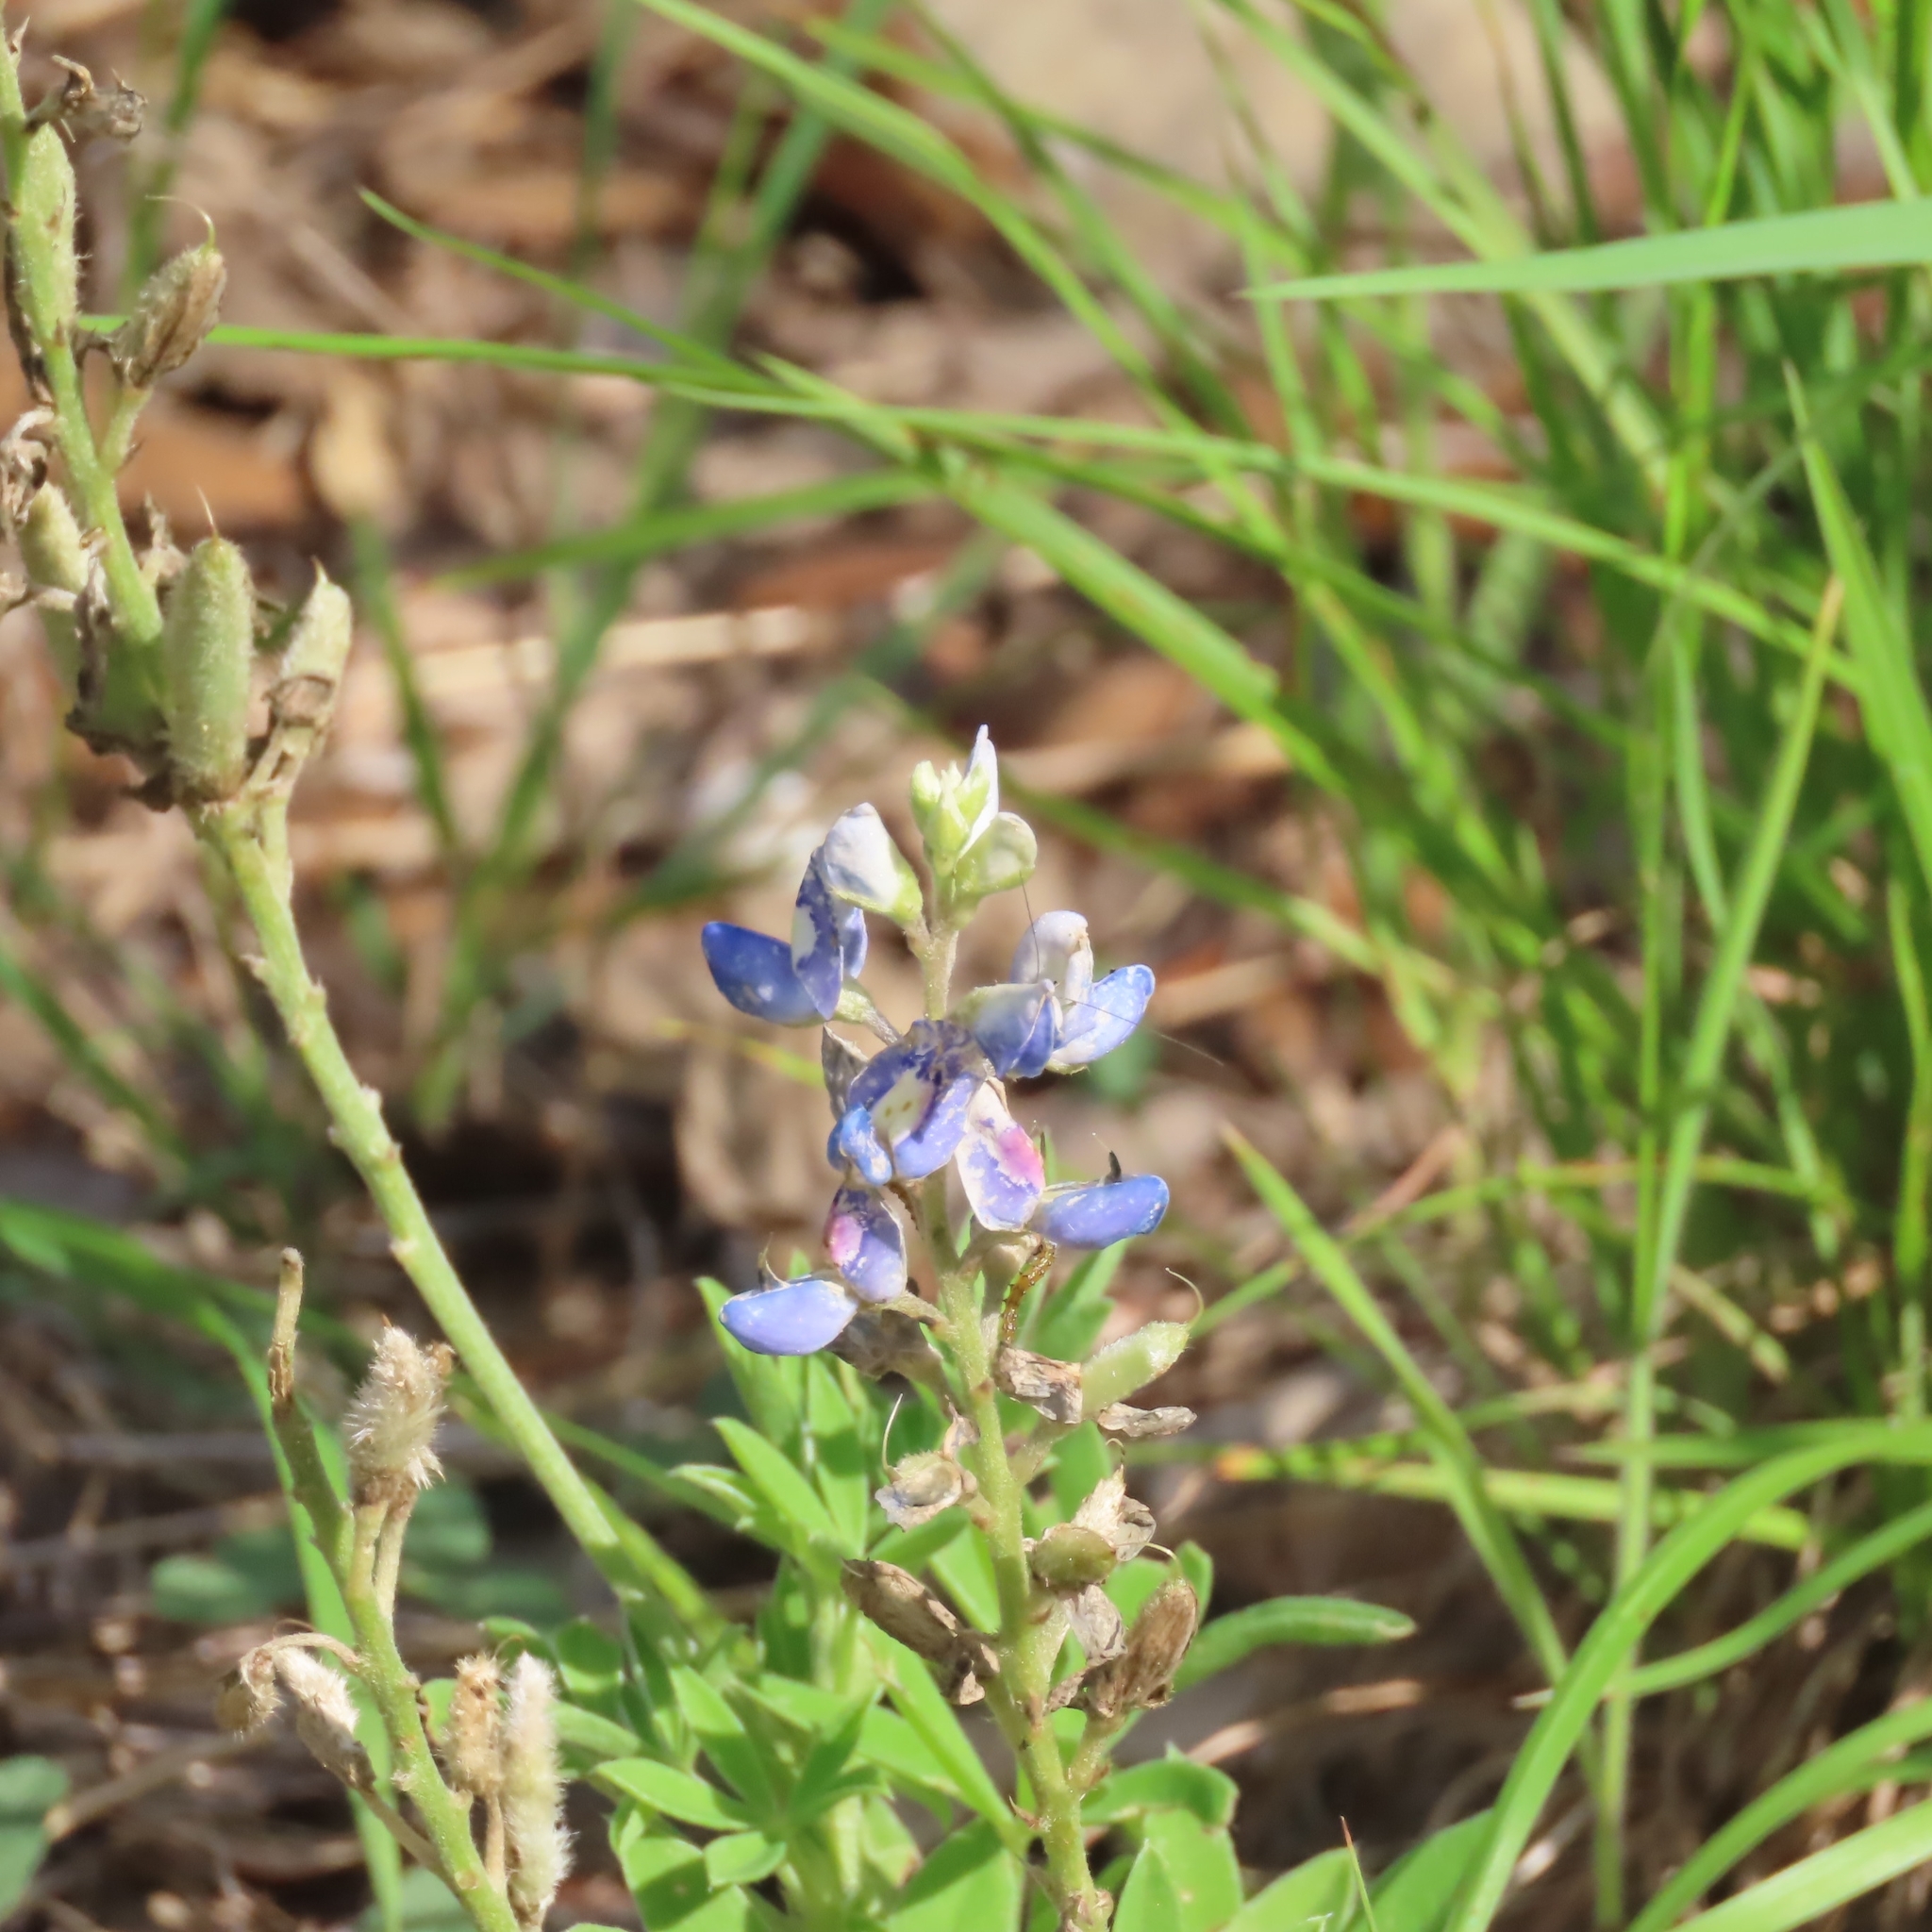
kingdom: Plantae
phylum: Tracheophyta
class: Magnoliopsida
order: Fabales
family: Fabaceae
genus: Lupinus
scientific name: Lupinus texensis
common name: Texas bluebonnet
